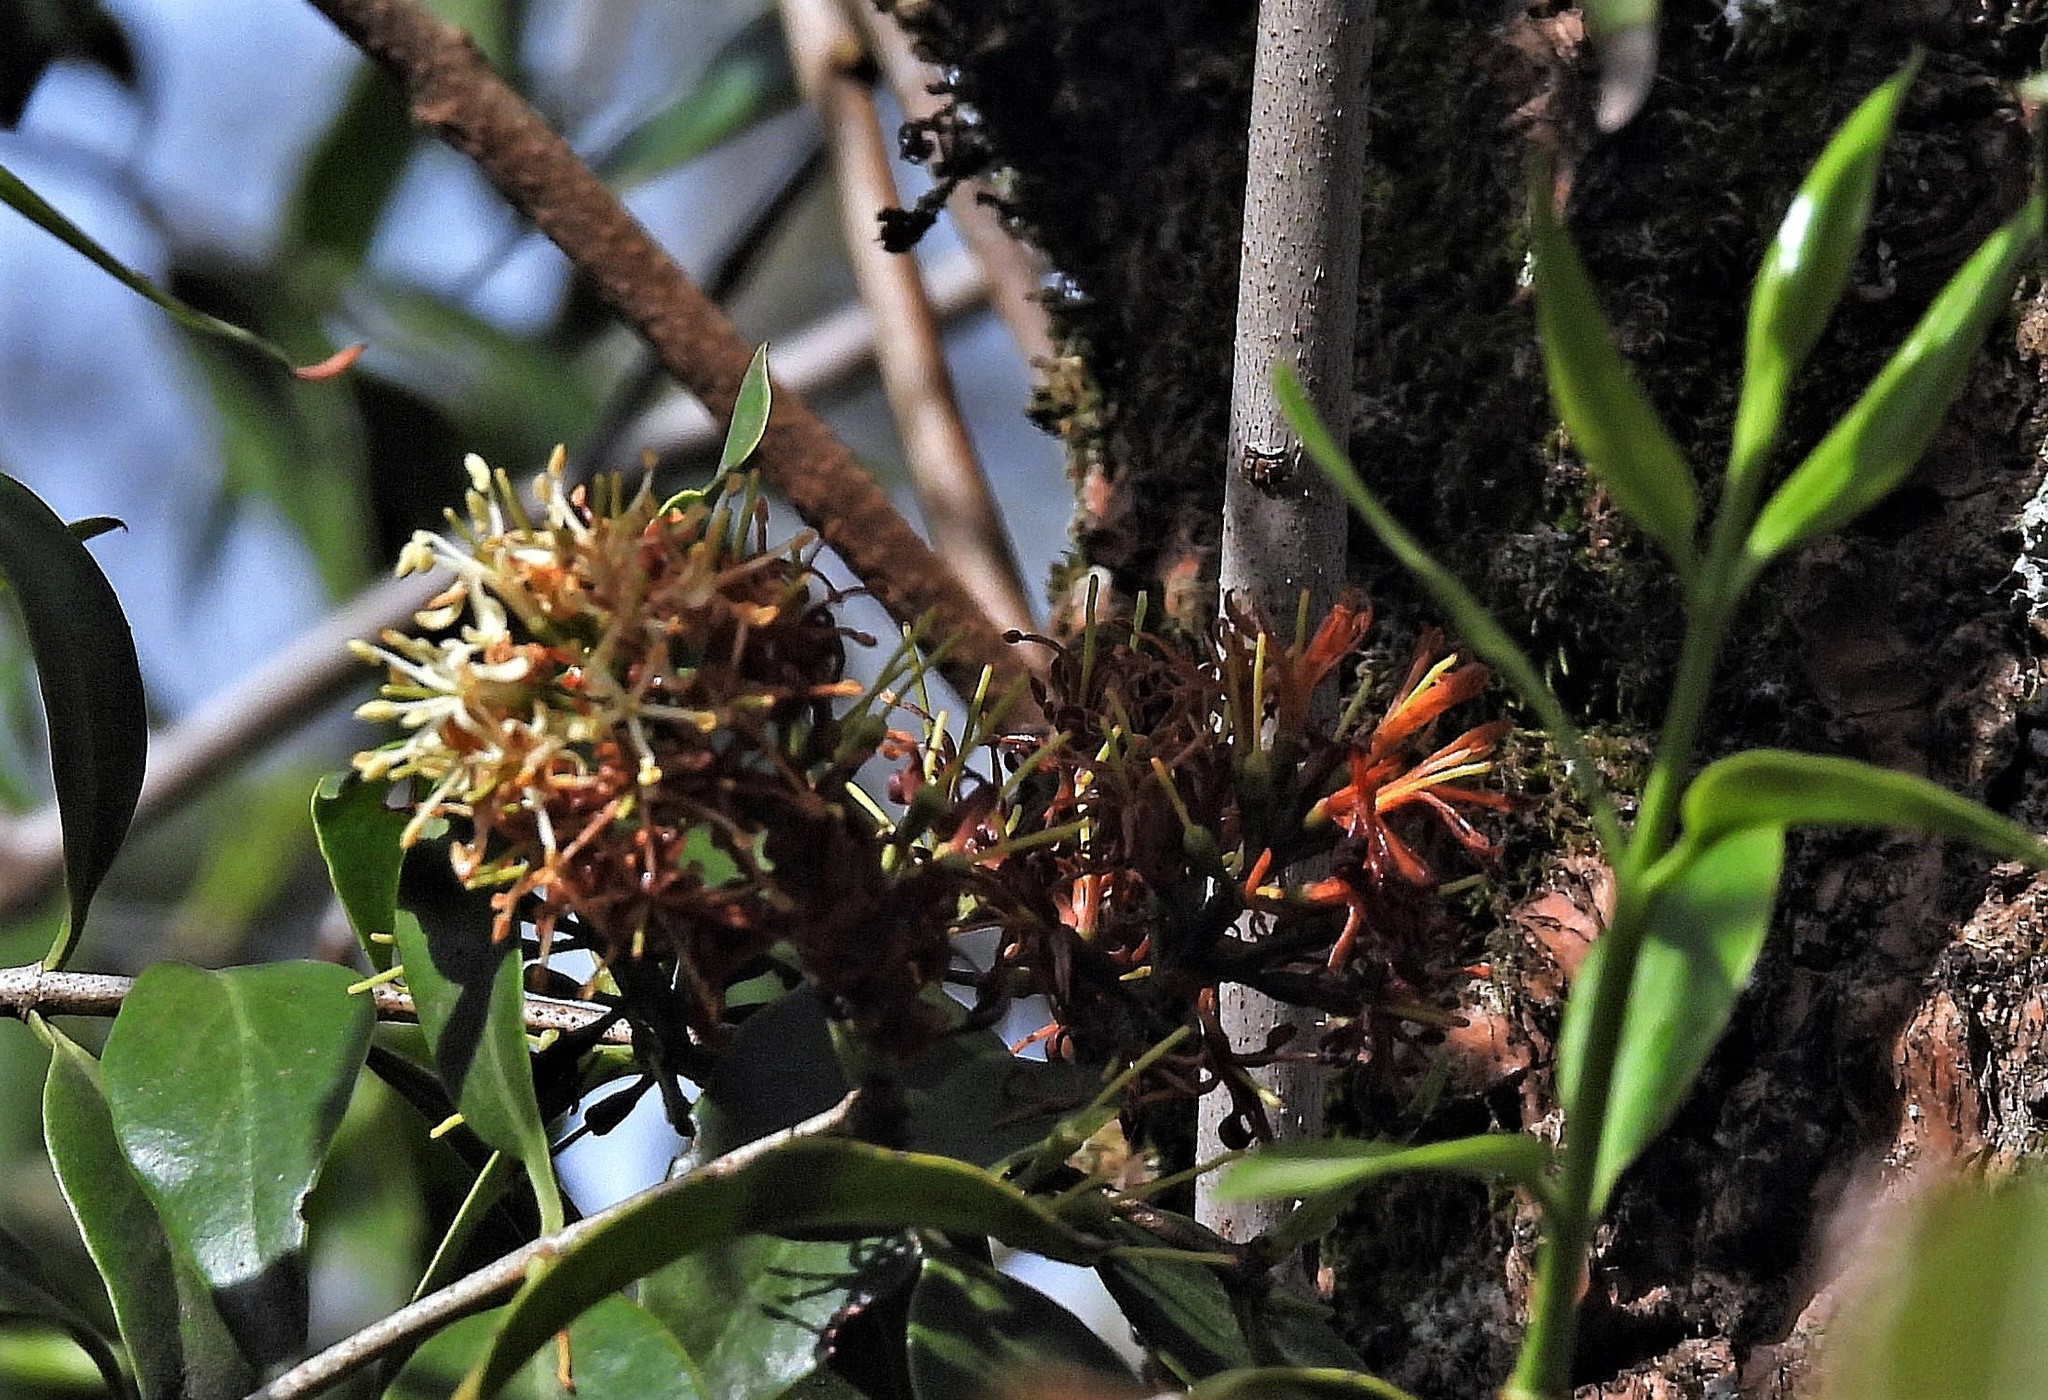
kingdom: Plantae
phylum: Tracheophyta
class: Magnoliopsida
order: Santalales
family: Loranthaceae
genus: Tripodanthus
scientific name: Tripodanthus acutifolius
